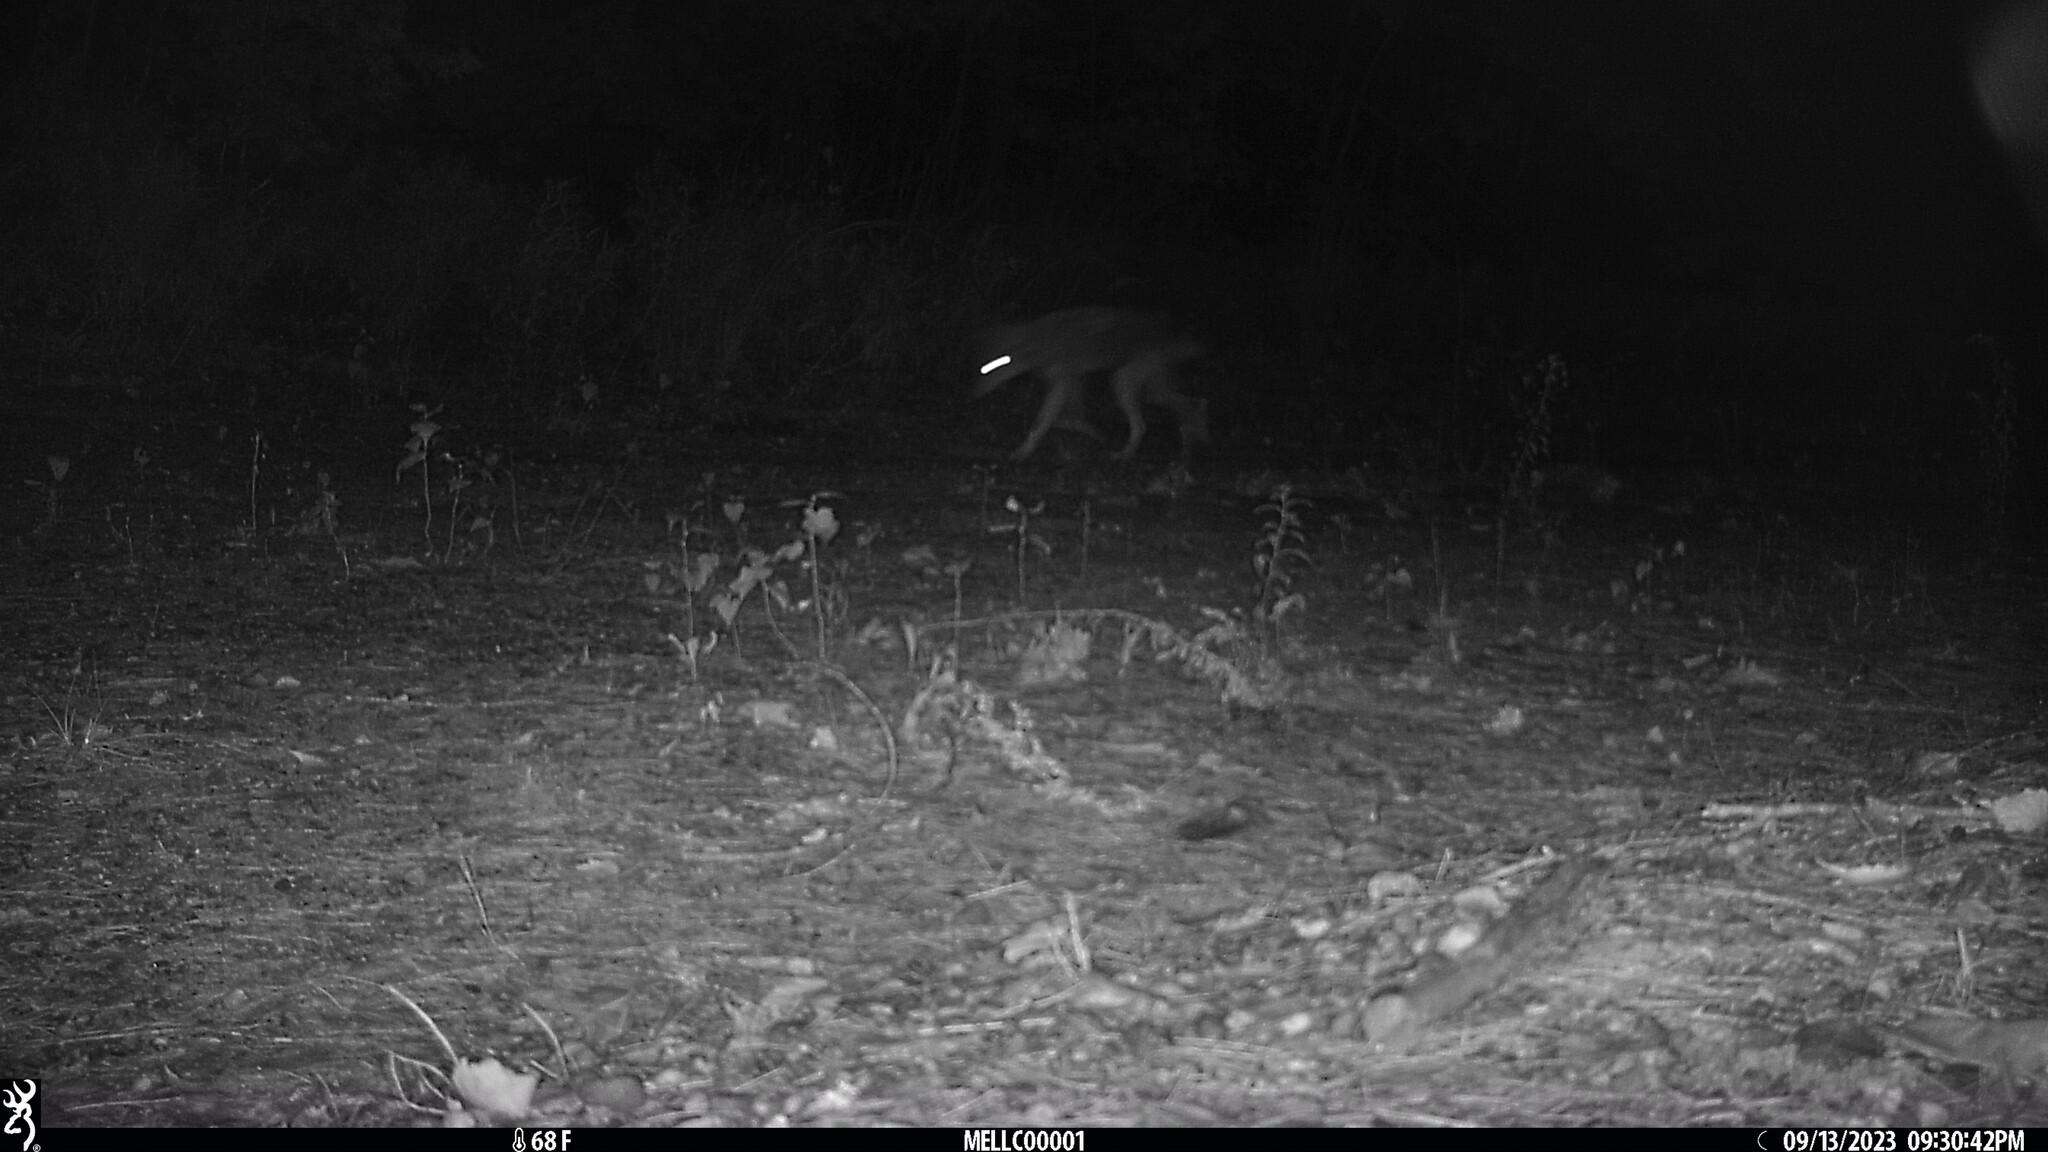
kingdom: Animalia
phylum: Chordata
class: Mammalia
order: Carnivora
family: Canidae
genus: Canis
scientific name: Canis latrans
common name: Coyote
